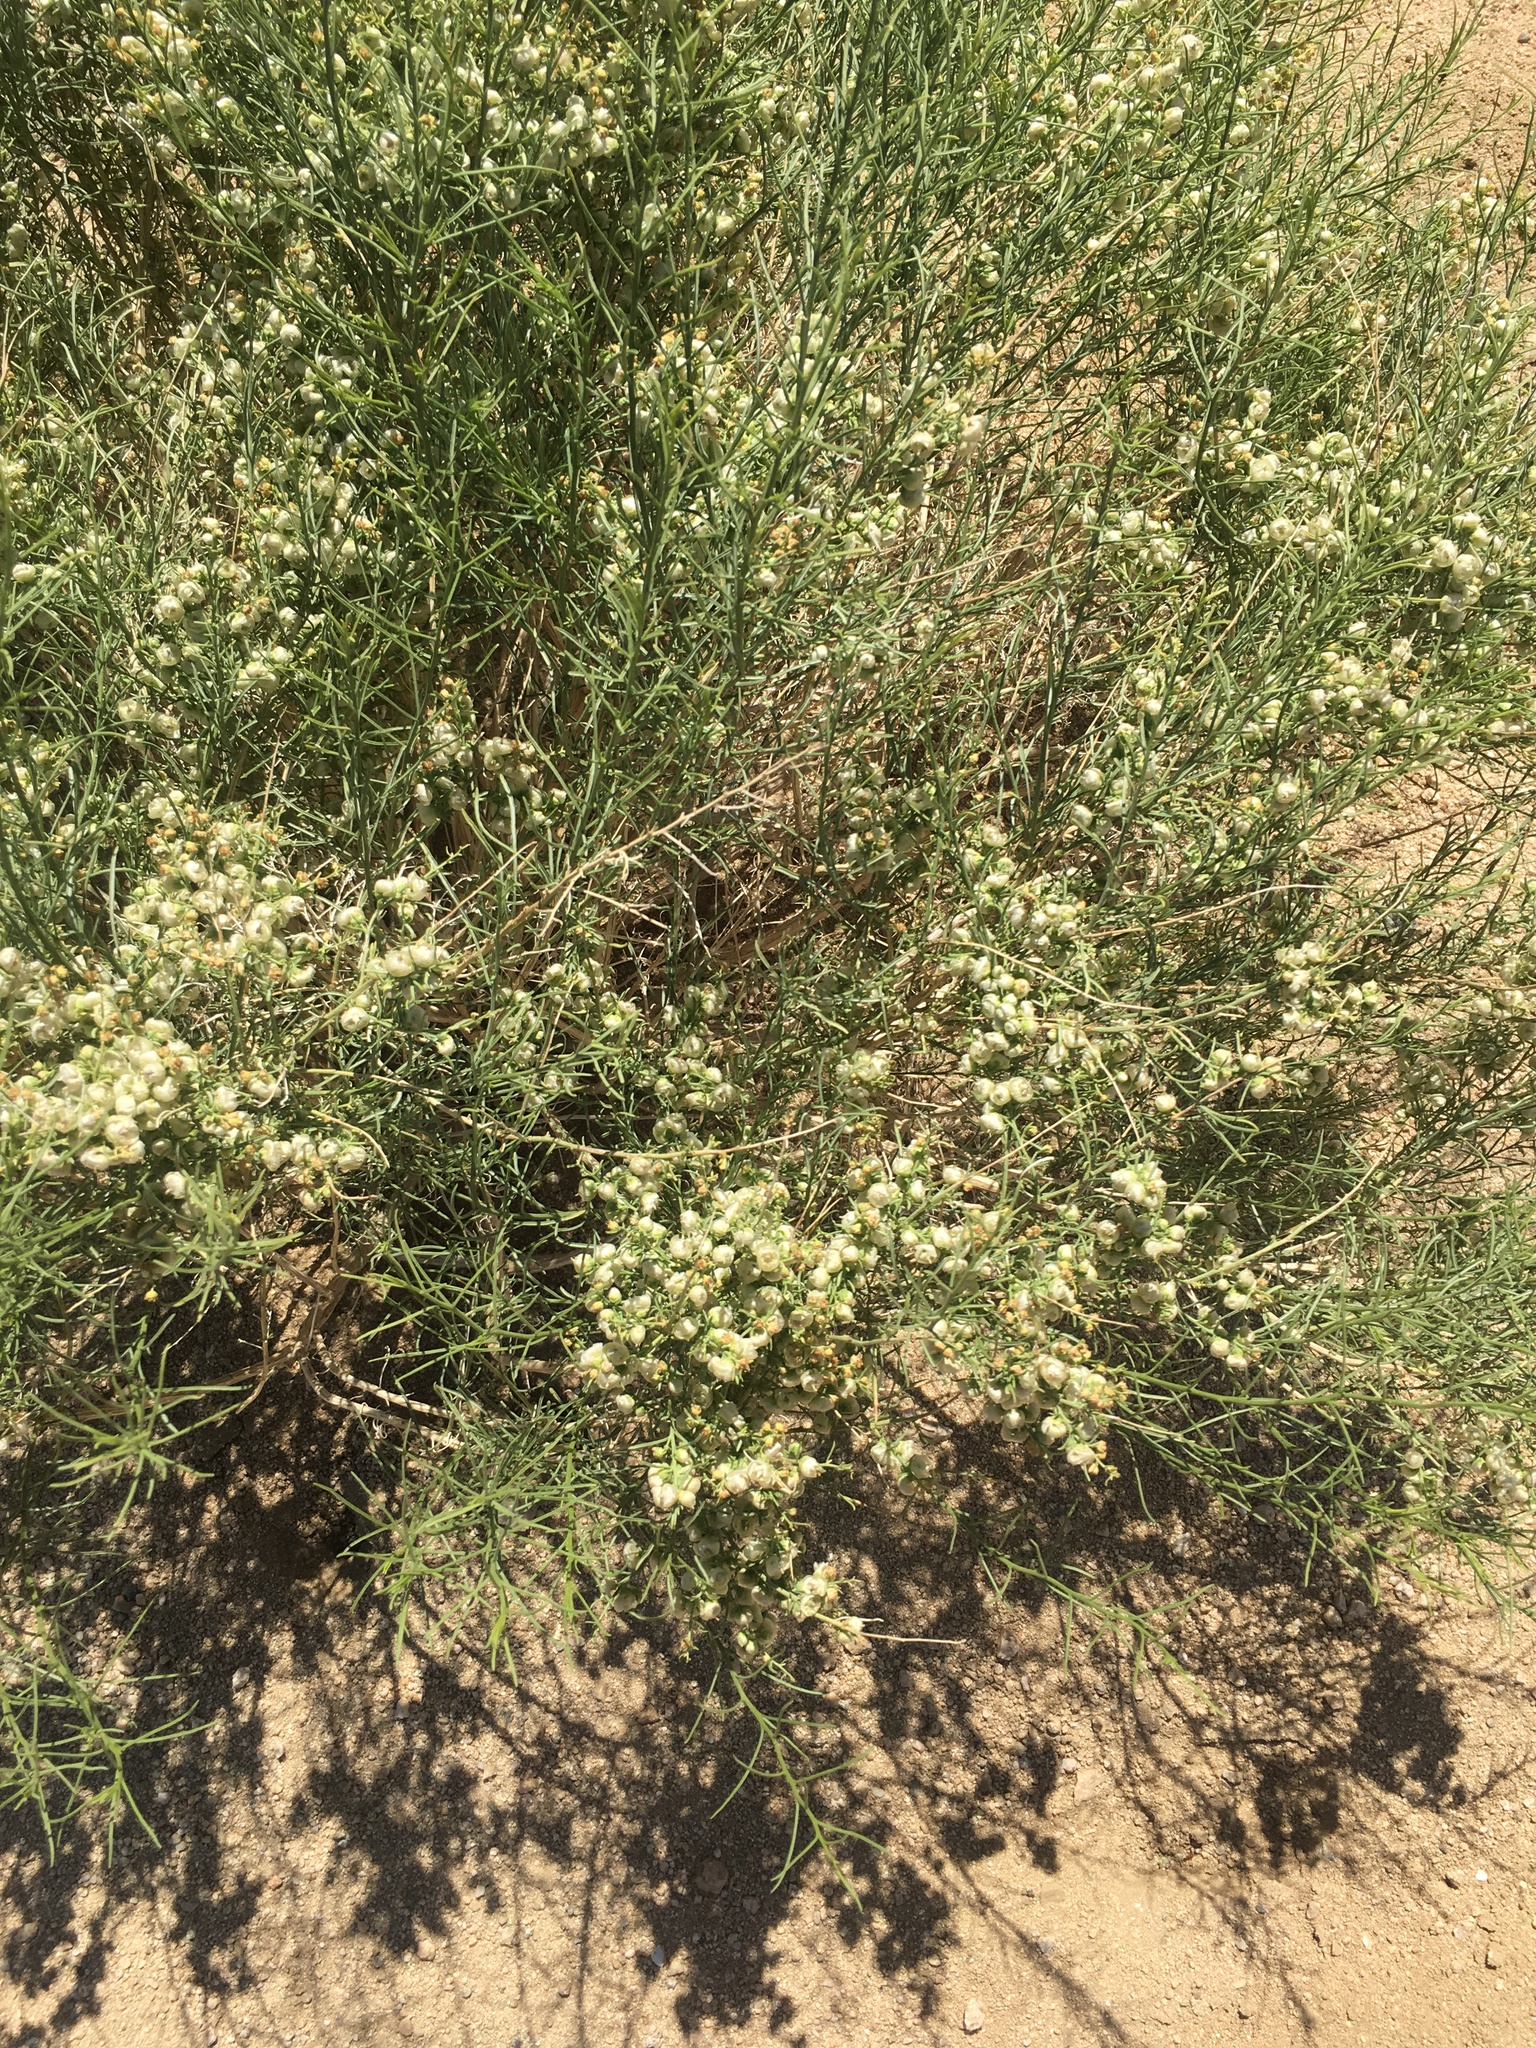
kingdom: Plantae
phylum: Tracheophyta
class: Magnoliopsida
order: Asterales
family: Asteraceae
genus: Ambrosia
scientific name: Ambrosia salsola
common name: Burrobrush
